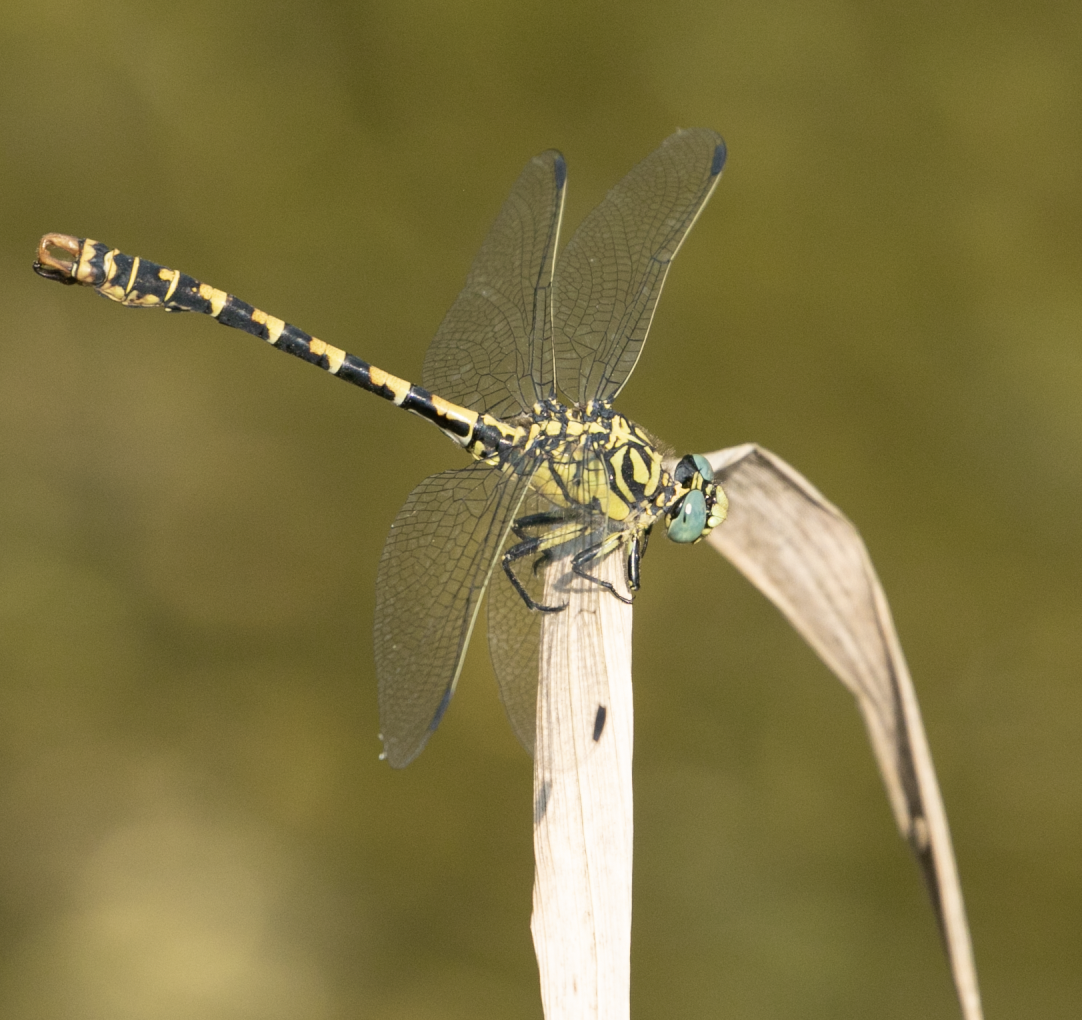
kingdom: Animalia
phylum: Arthropoda
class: Insecta
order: Odonata
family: Gomphidae
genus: Onychogomphus
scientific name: Onychogomphus forcipatus
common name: Small pincertail
